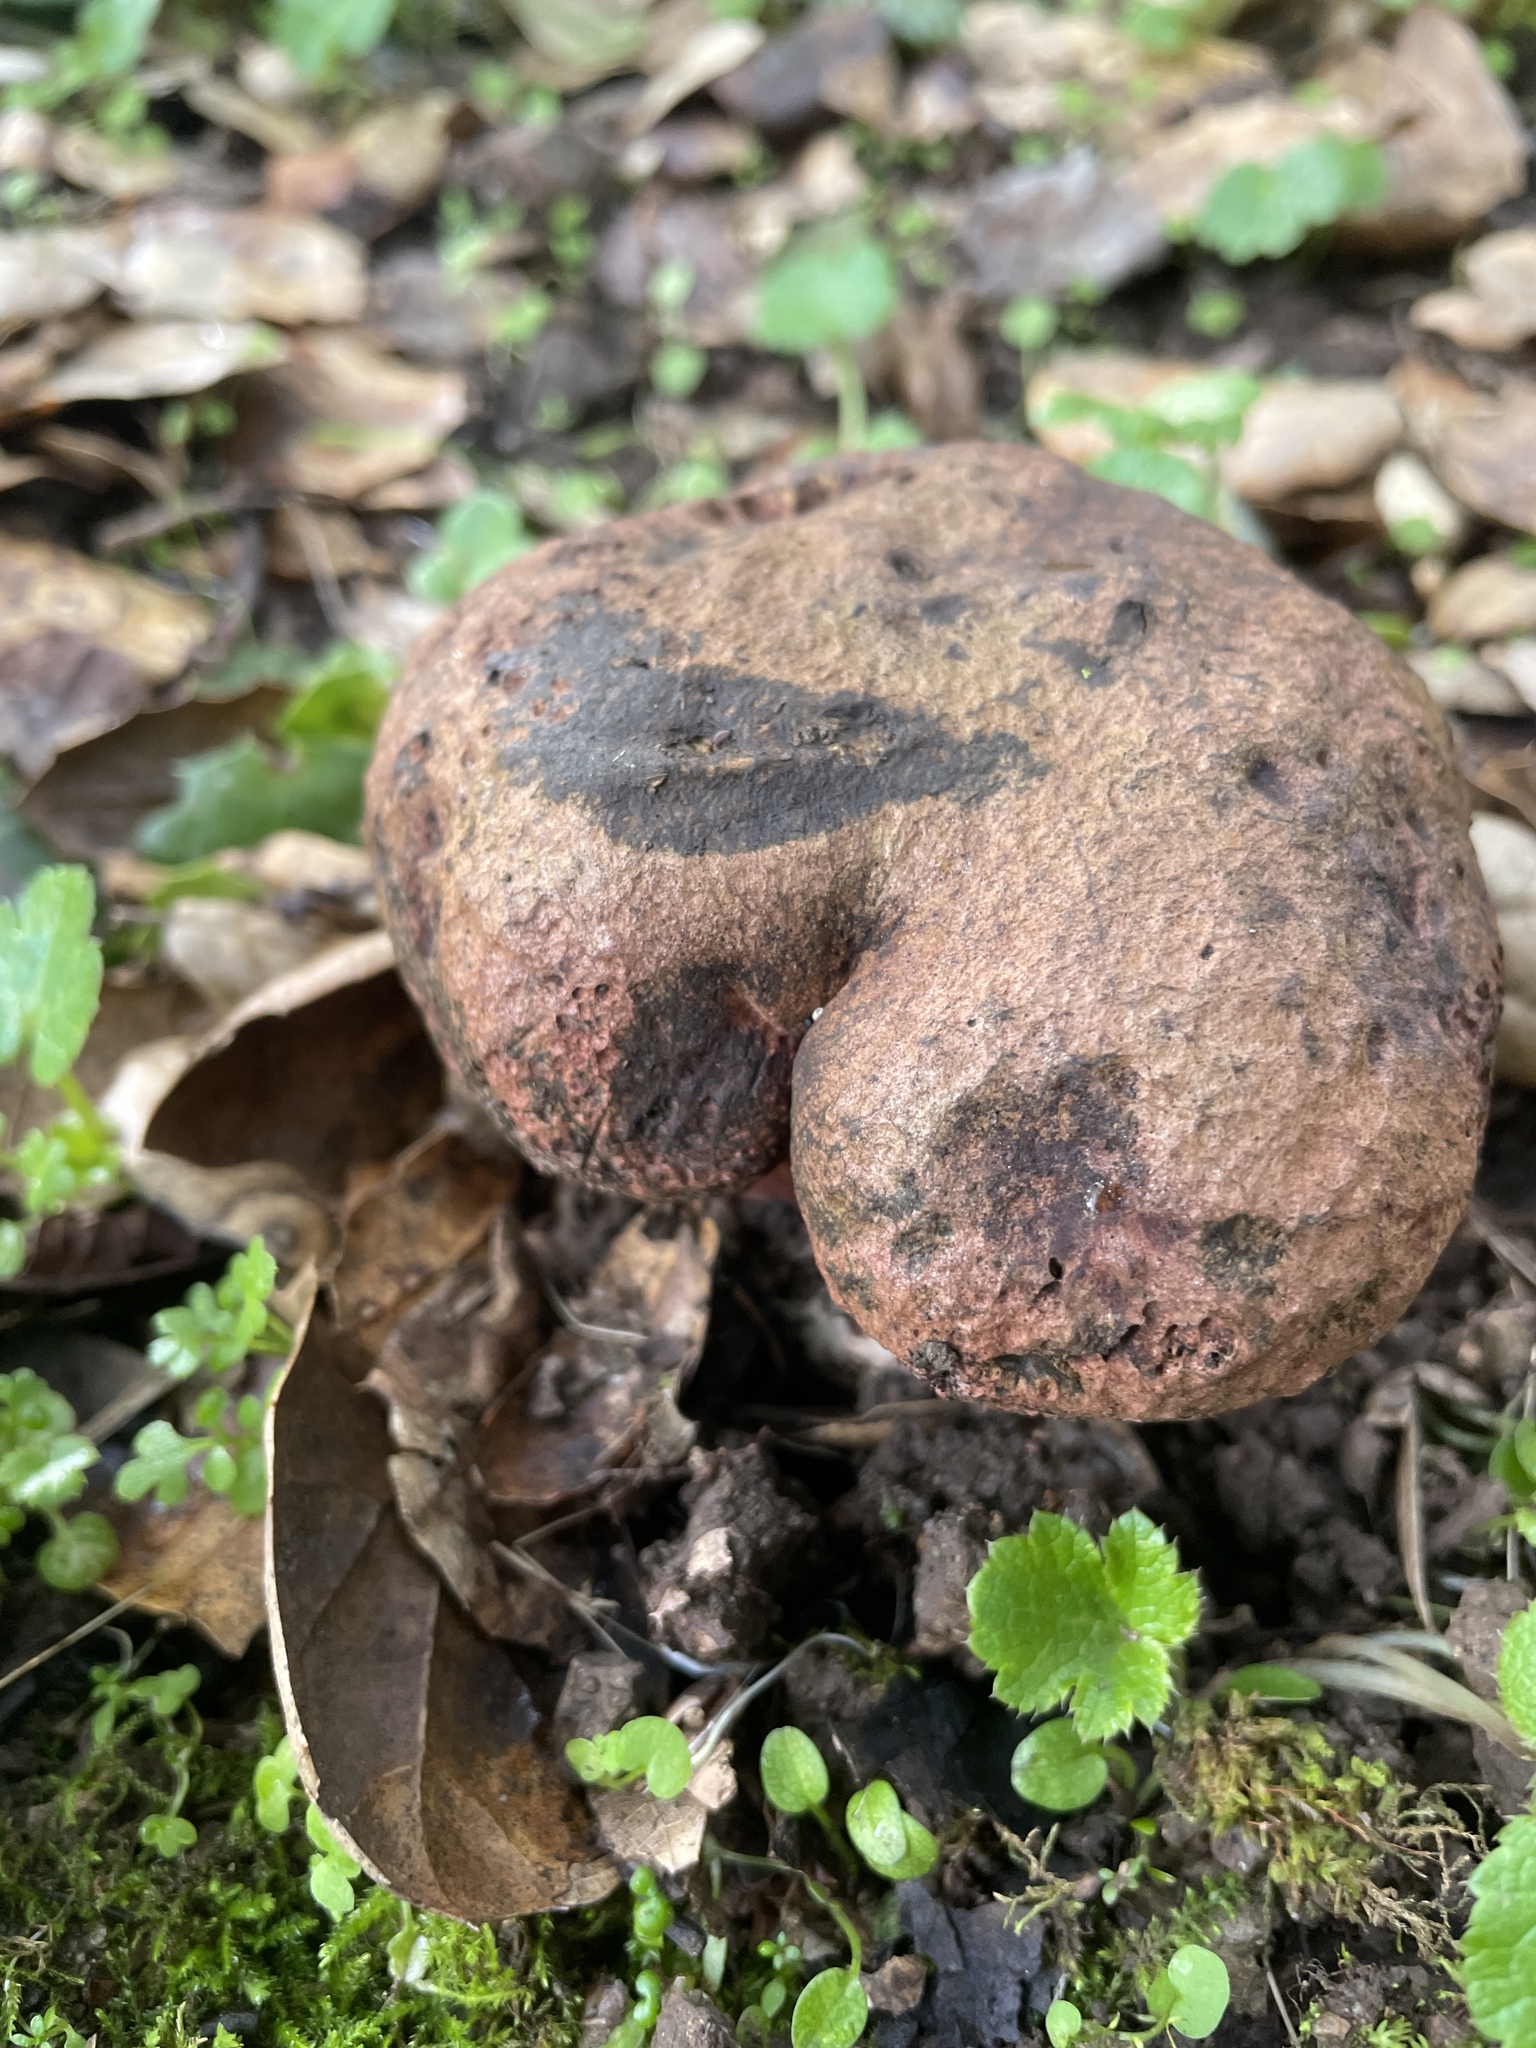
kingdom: Fungi
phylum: Basidiomycota
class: Agaricomycetes
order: Boletales
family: Boletaceae
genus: Suillellus
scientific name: Suillellus amygdalinus
